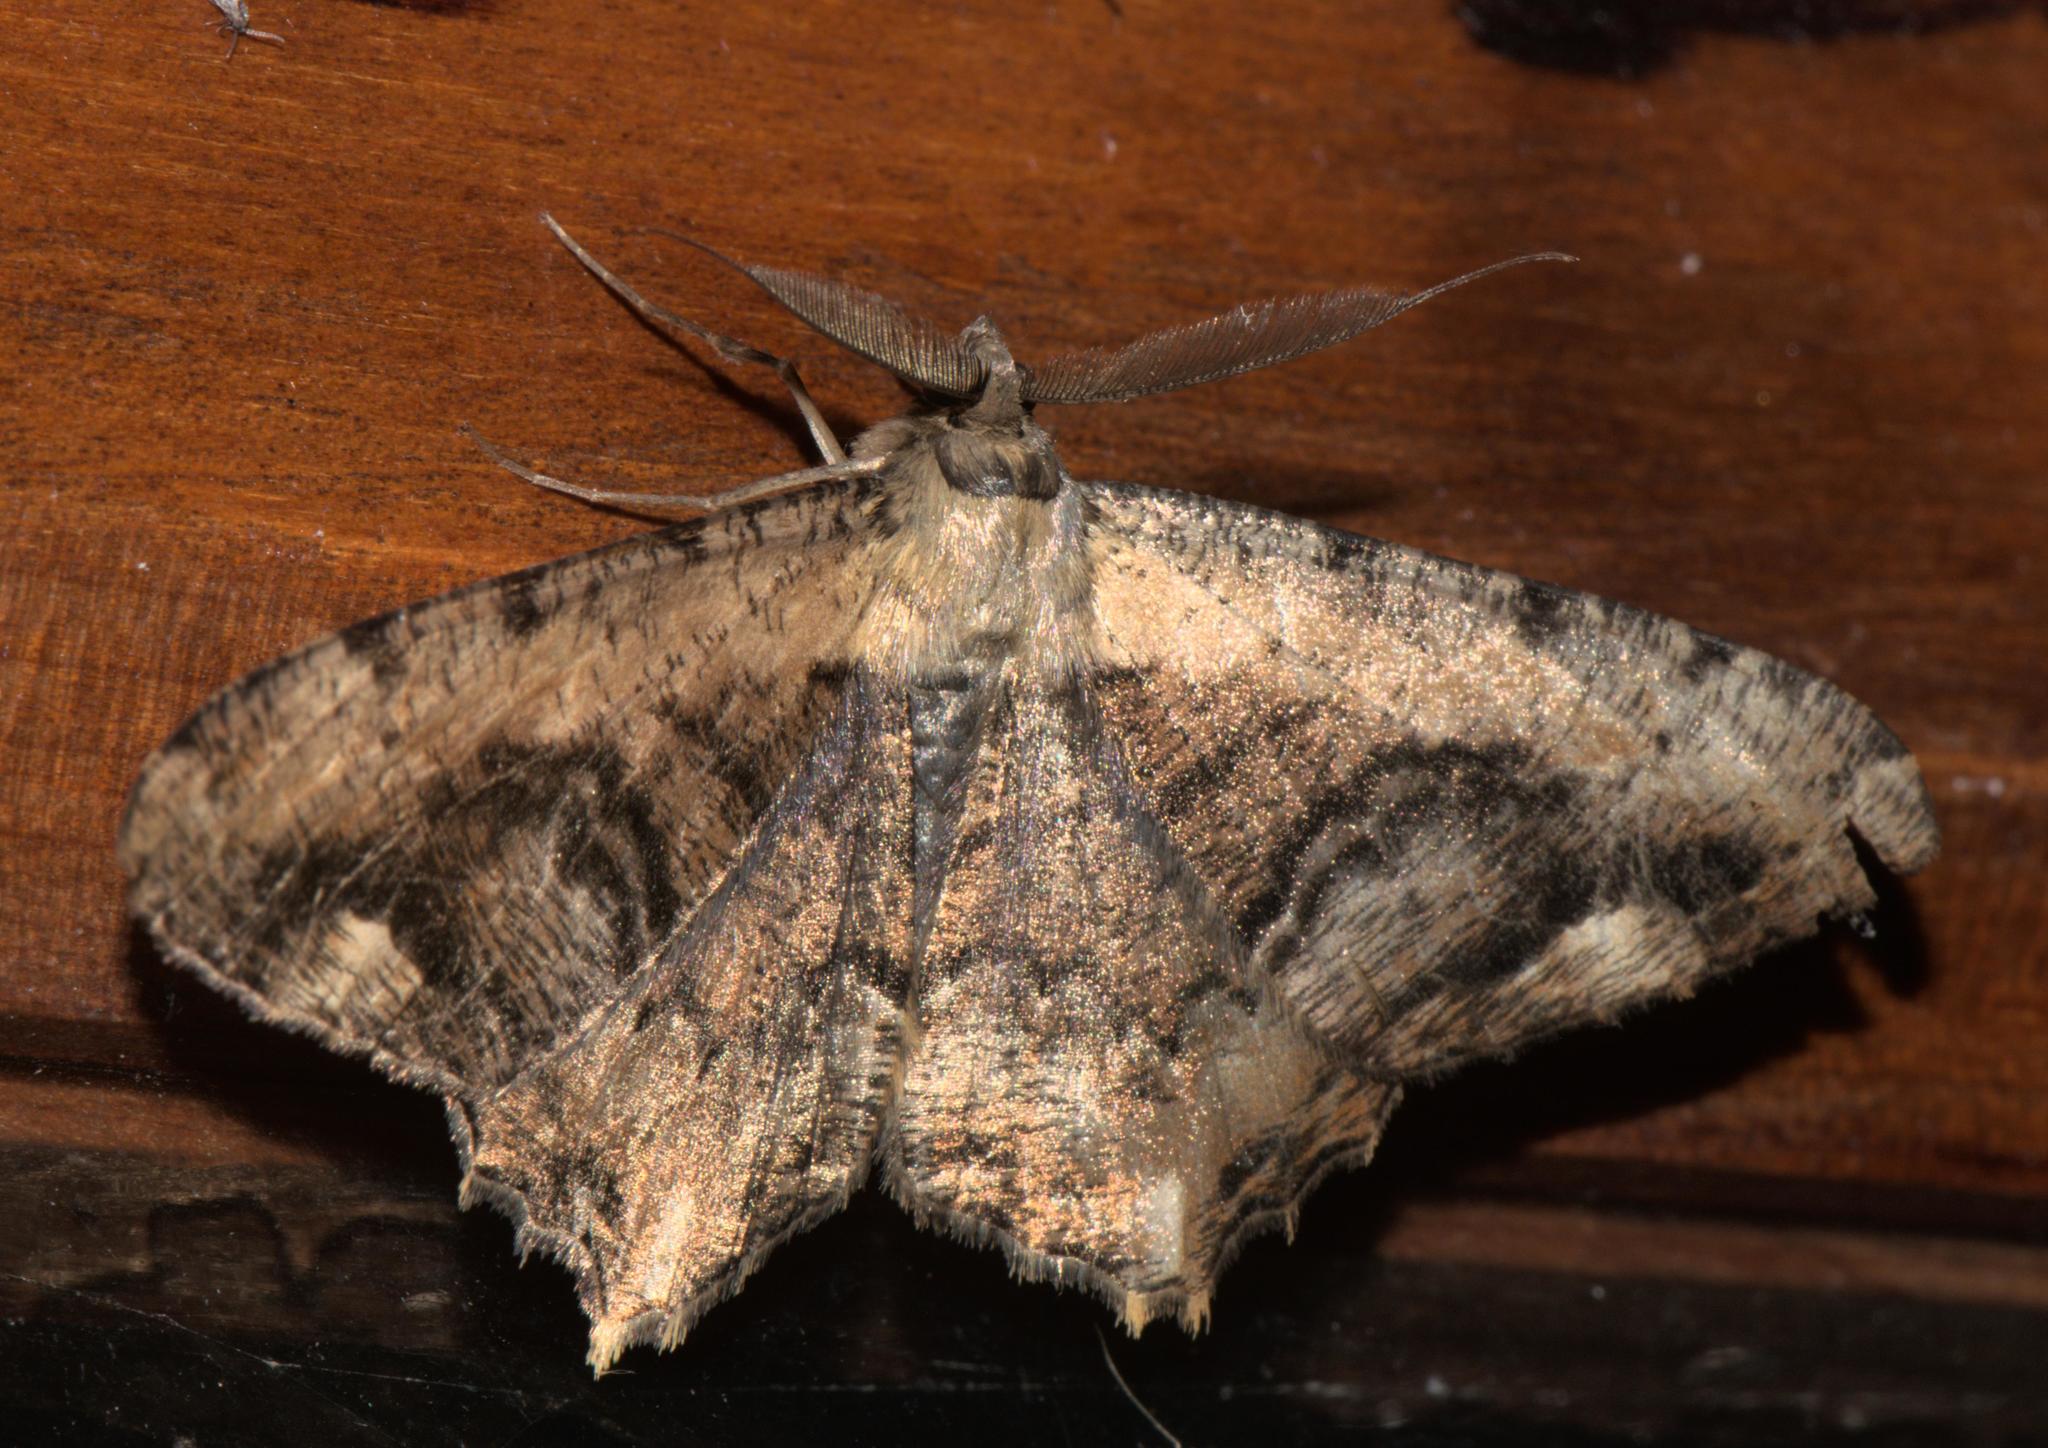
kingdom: Animalia
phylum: Arthropoda
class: Insecta
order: Lepidoptera
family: Geometridae
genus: Lassaba
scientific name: Lassaba interruptaria
